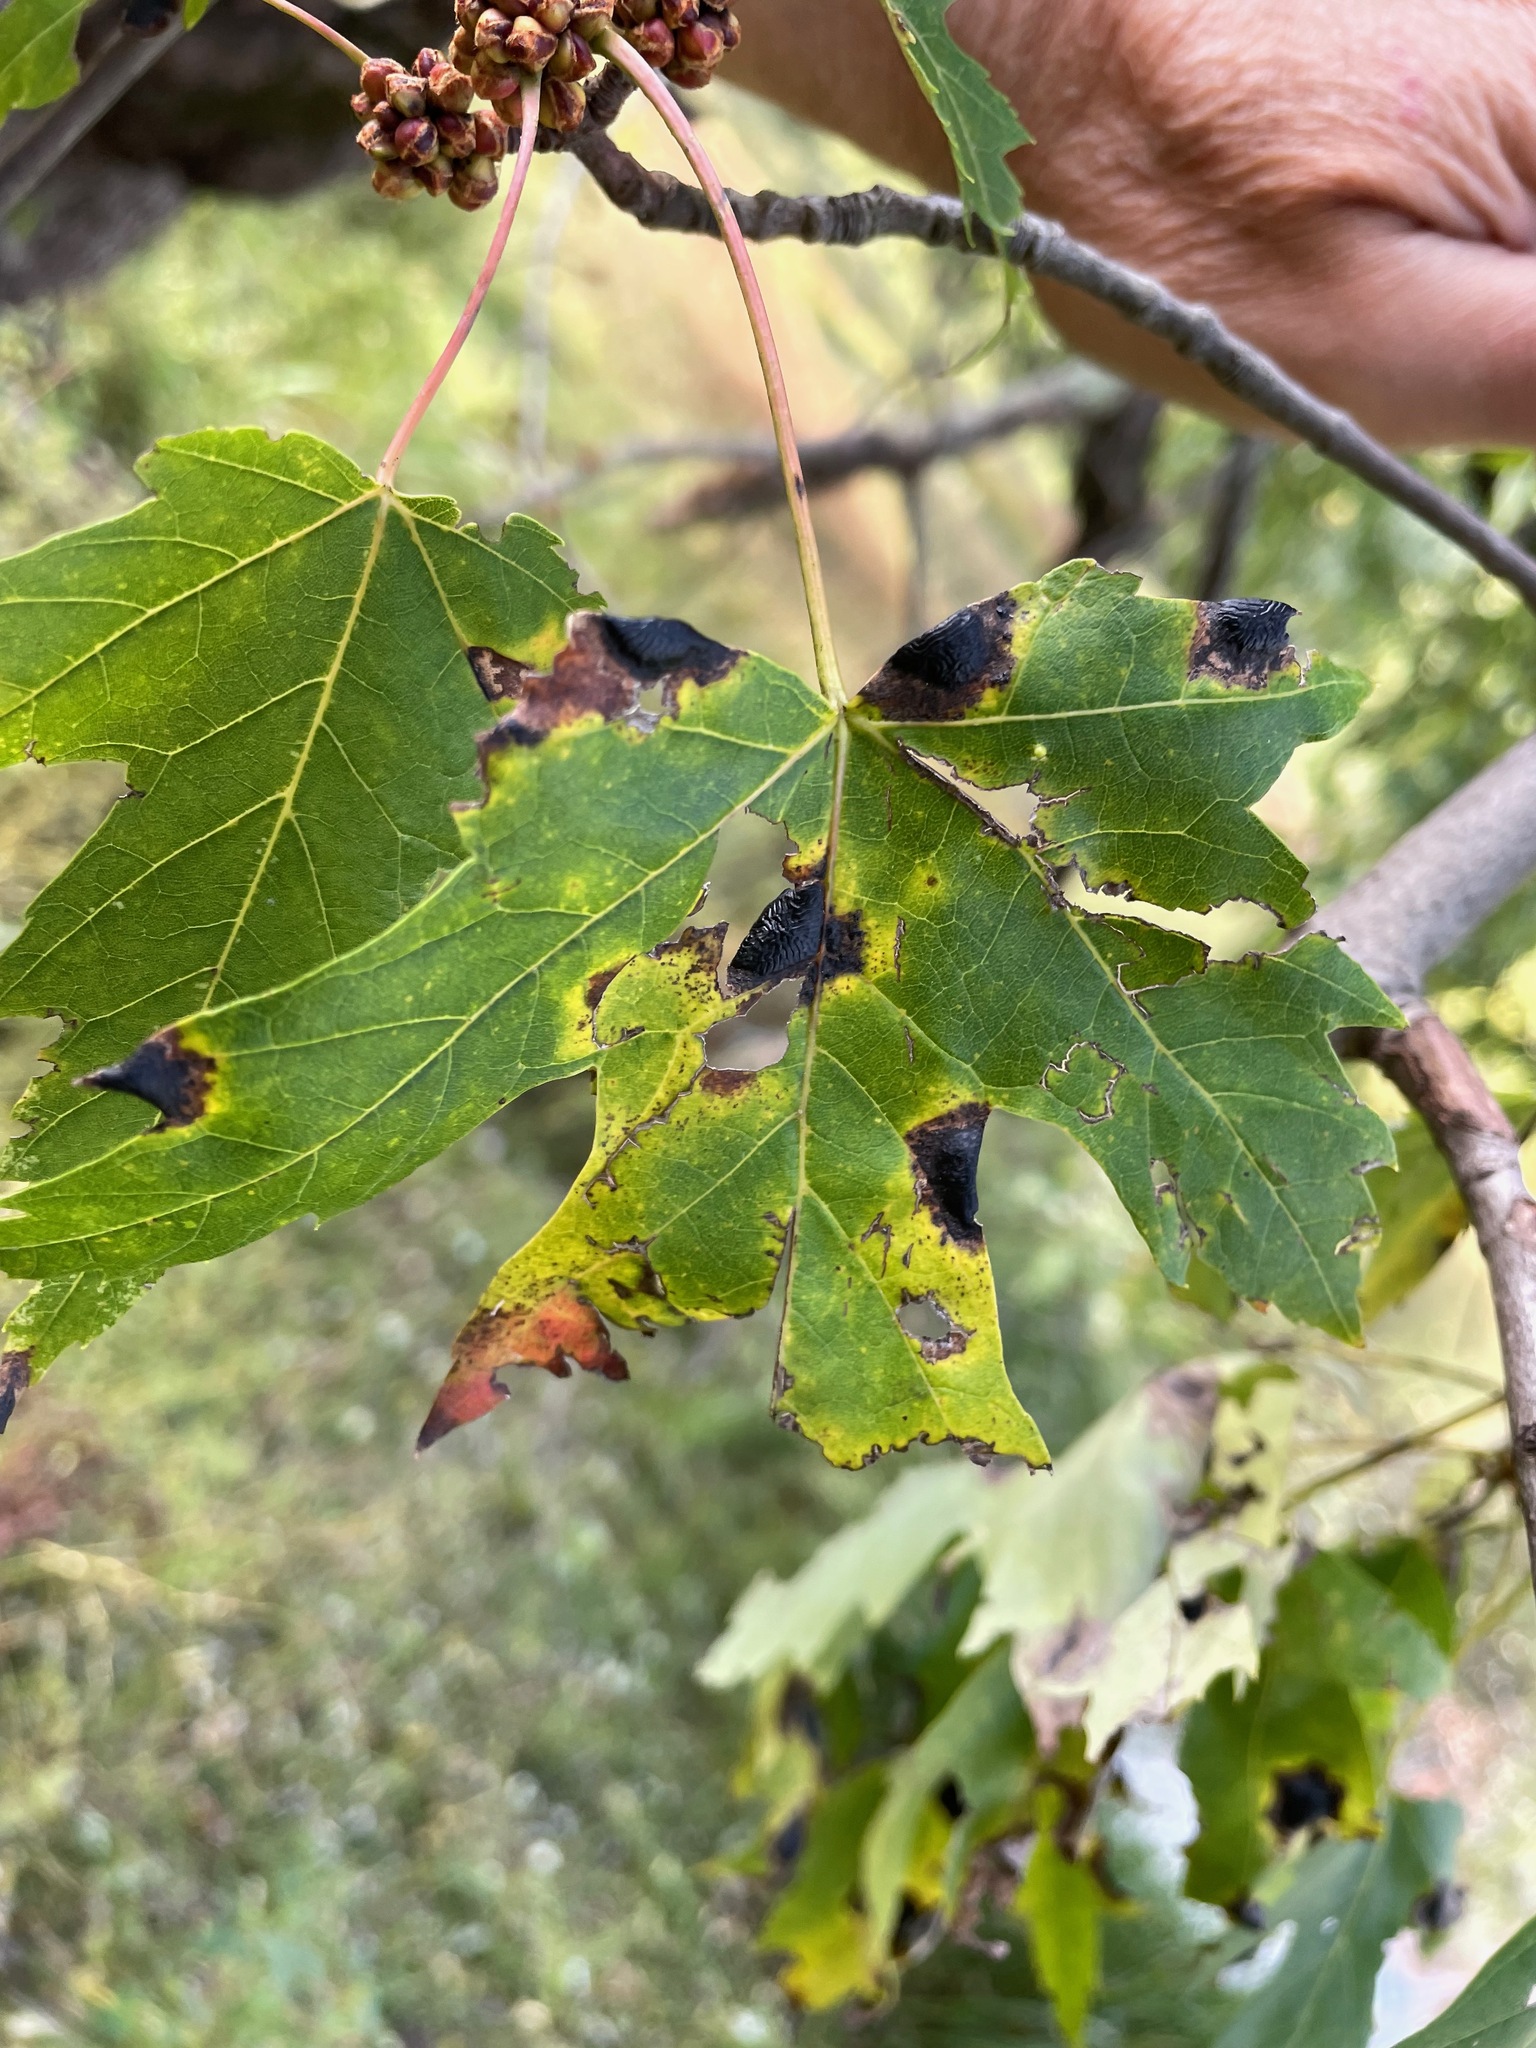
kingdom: Fungi
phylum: Ascomycota
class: Leotiomycetes
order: Rhytismatales
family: Rhytismataceae
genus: Rhytisma
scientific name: Rhytisma americanum
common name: American tar spot
